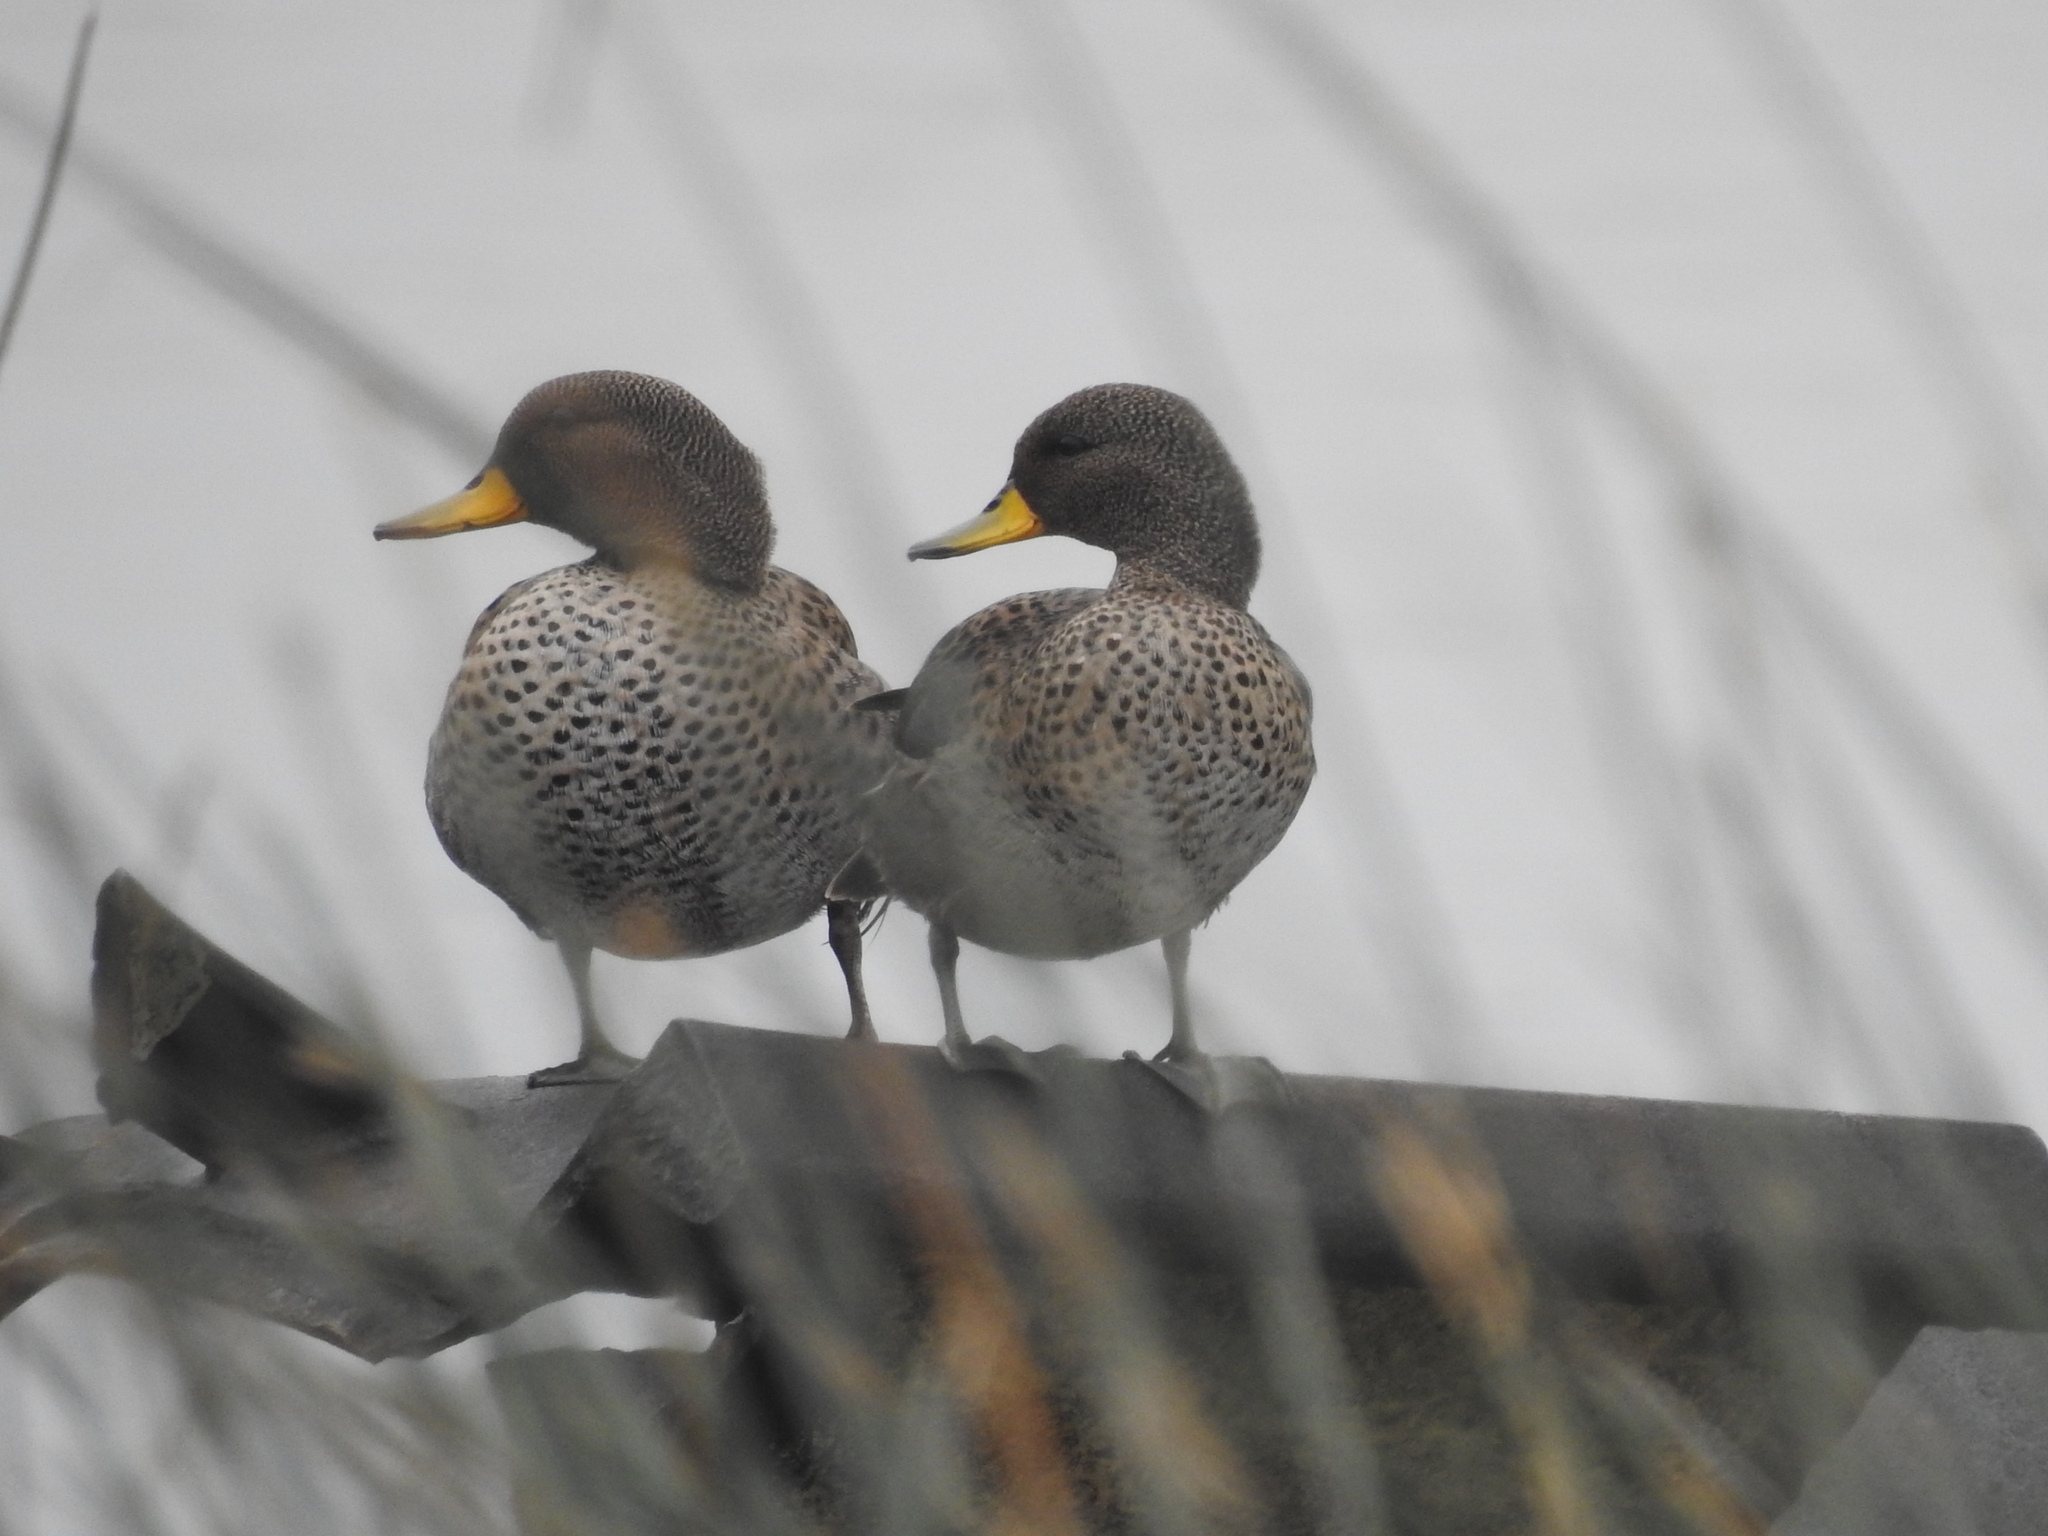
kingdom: Animalia
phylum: Chordata
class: Aves
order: Anseriformes
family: Anatidae
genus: Anas
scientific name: Anas flavirostris
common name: Yellow-billed teal
